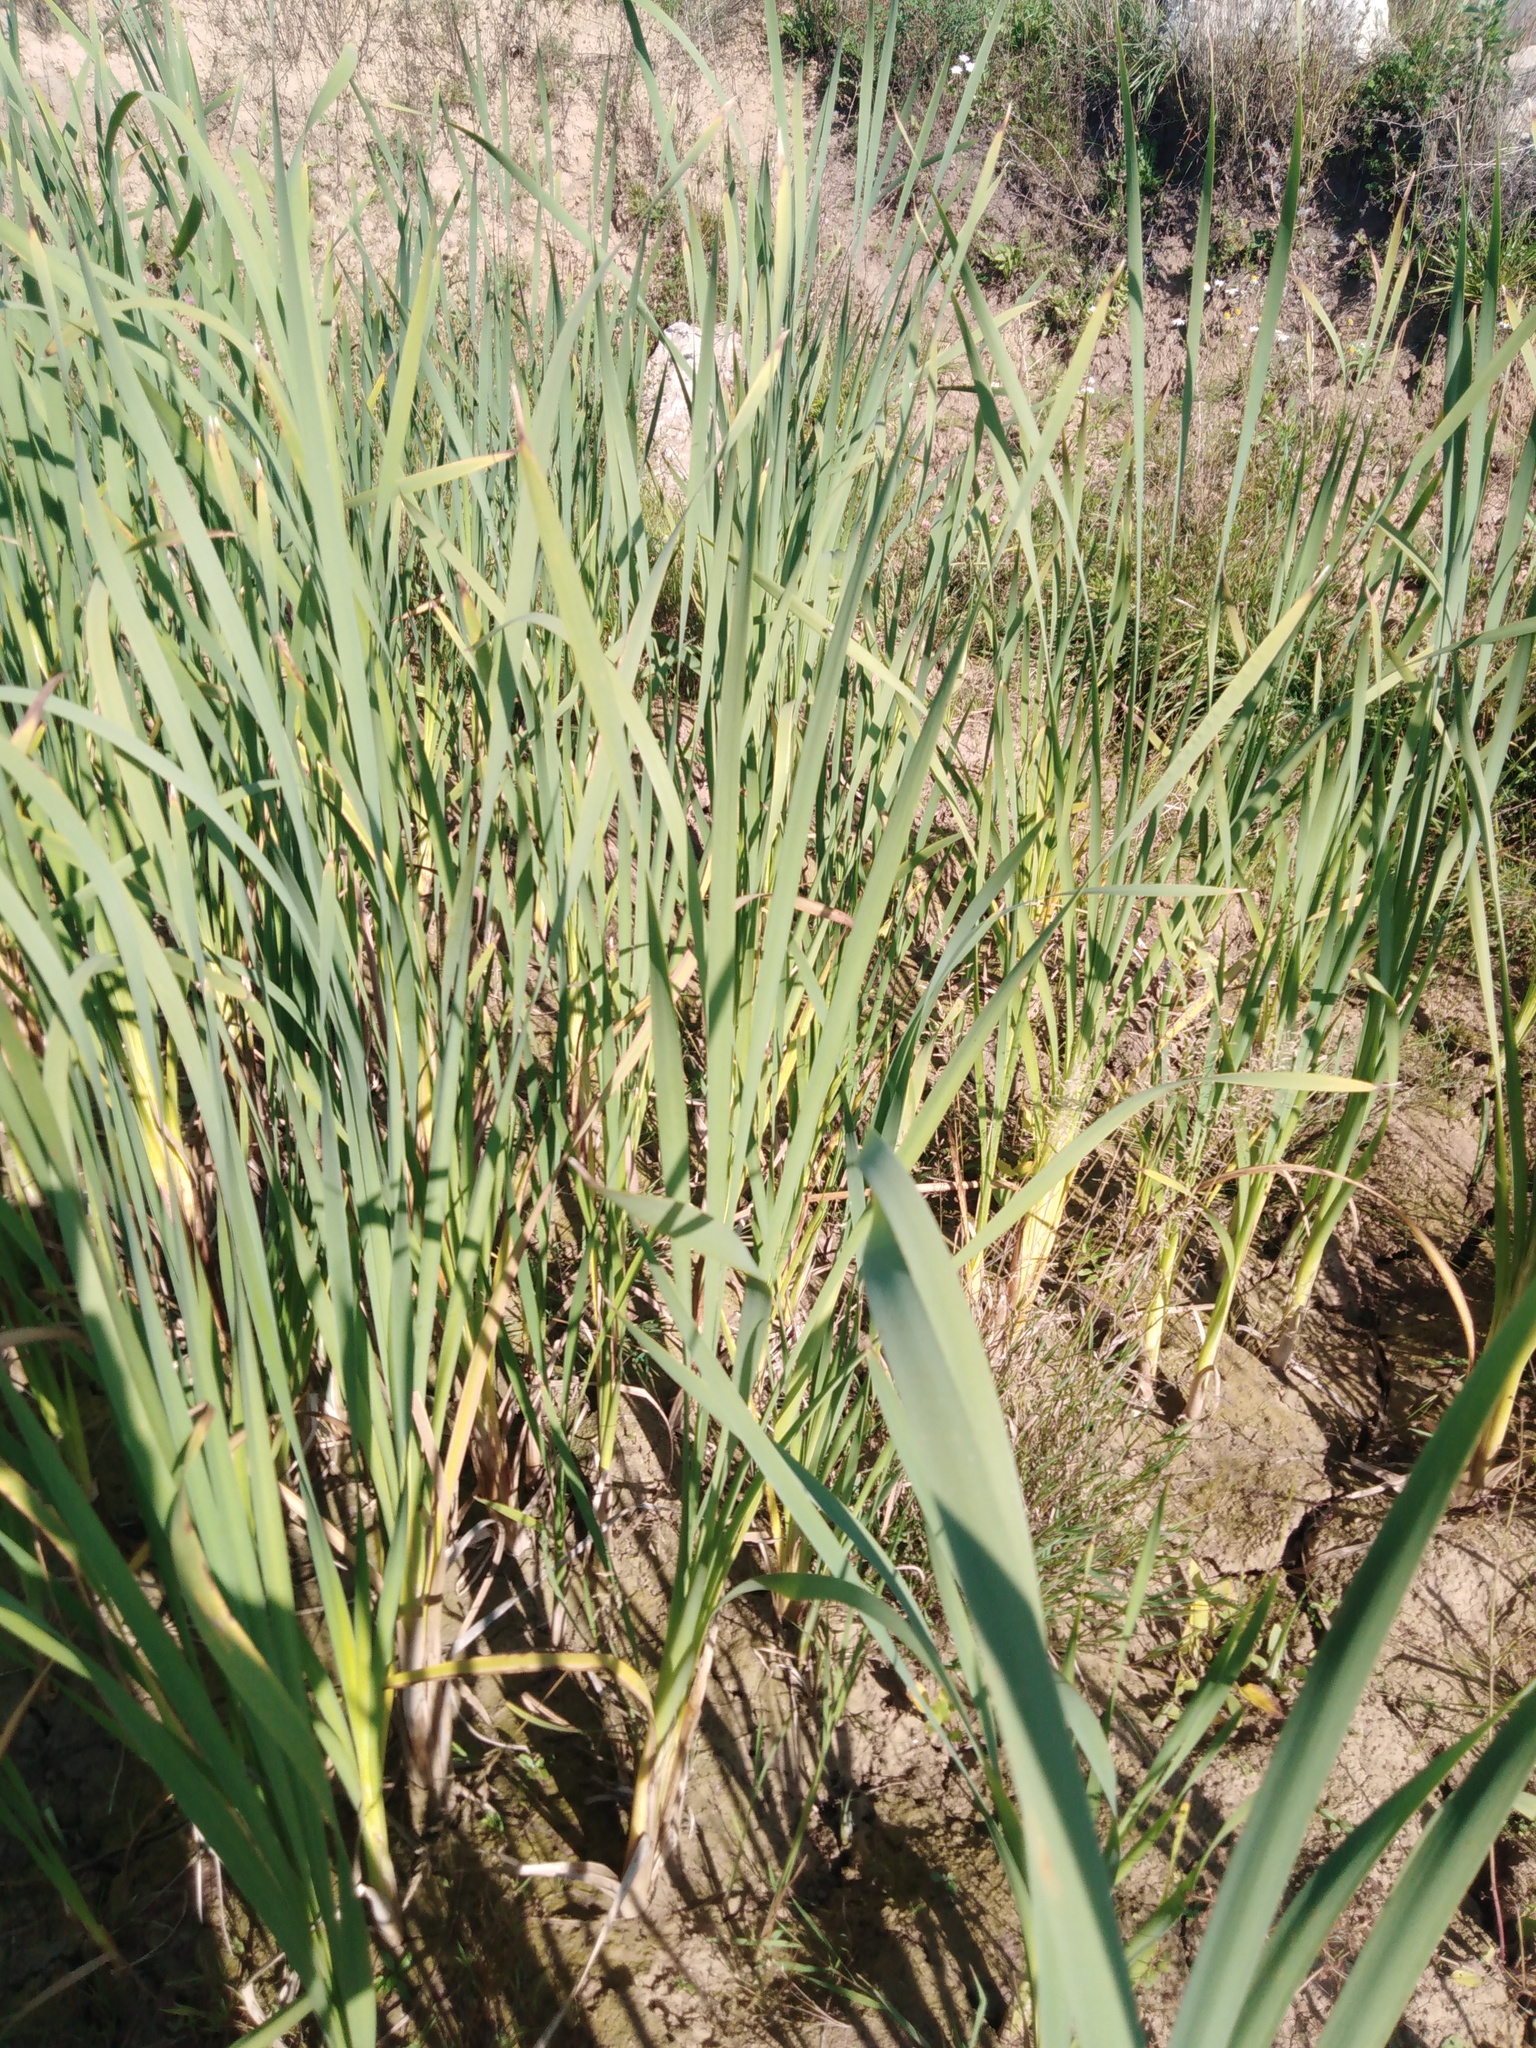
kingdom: Plantae
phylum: Tracheophyta
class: Liliopsida
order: Poales
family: Typhaceae
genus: Typha
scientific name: Typha latifolia
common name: Broadleaf cattail
